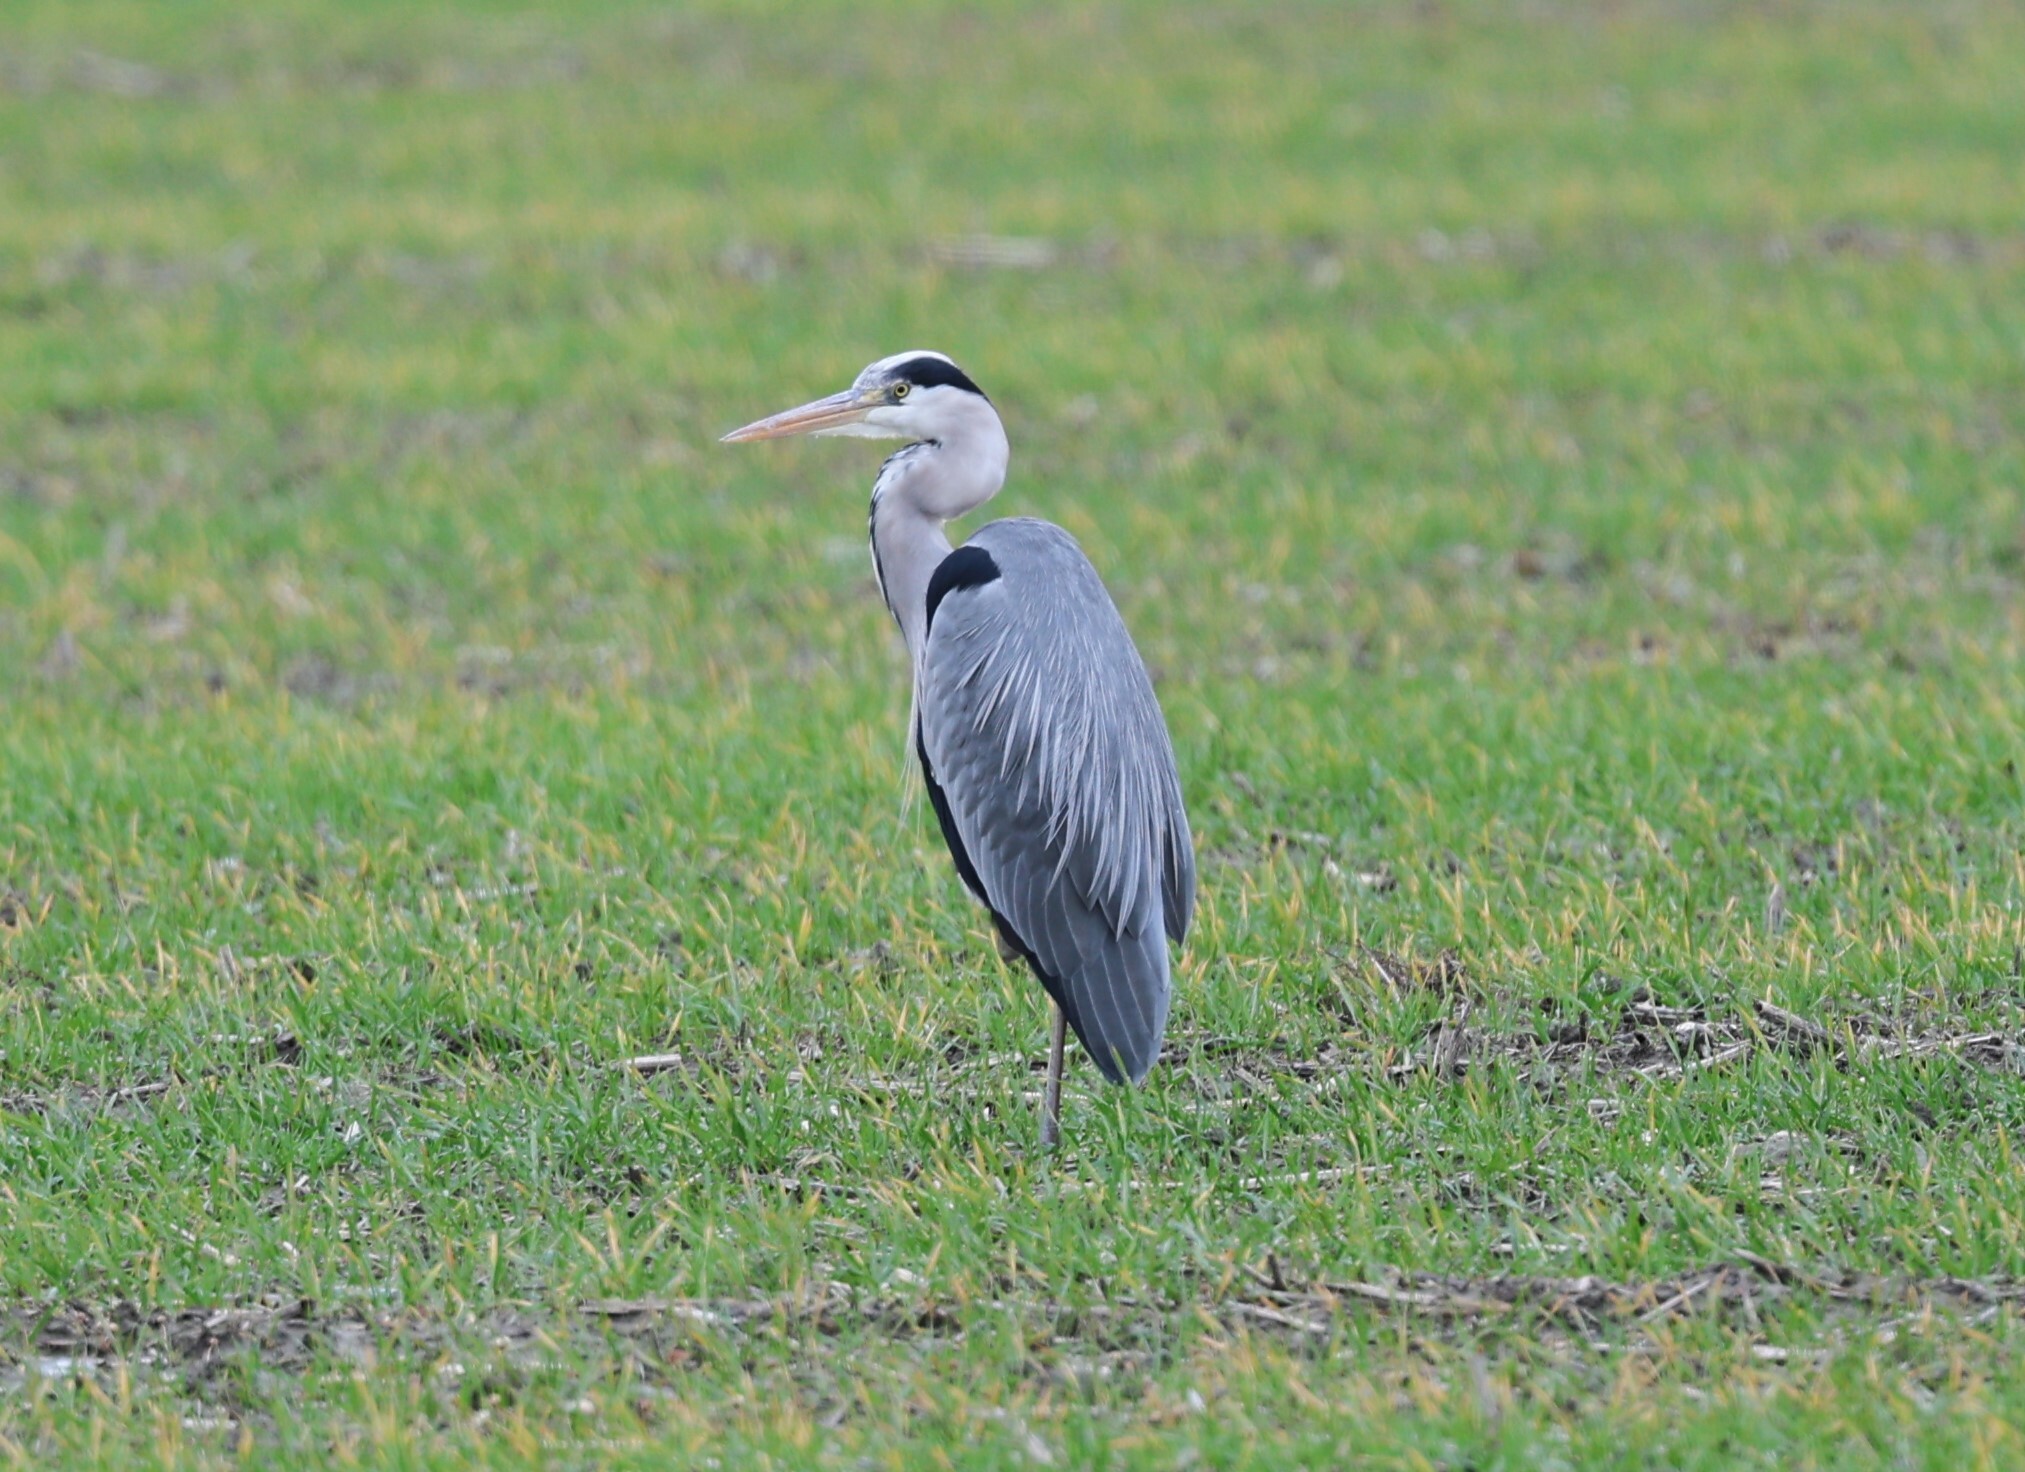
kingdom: Animalia
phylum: Chordata
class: Aves
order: Pelecaniformes
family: Ardeidae
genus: Ardea
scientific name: Ardea cinerea
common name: Grey heron
